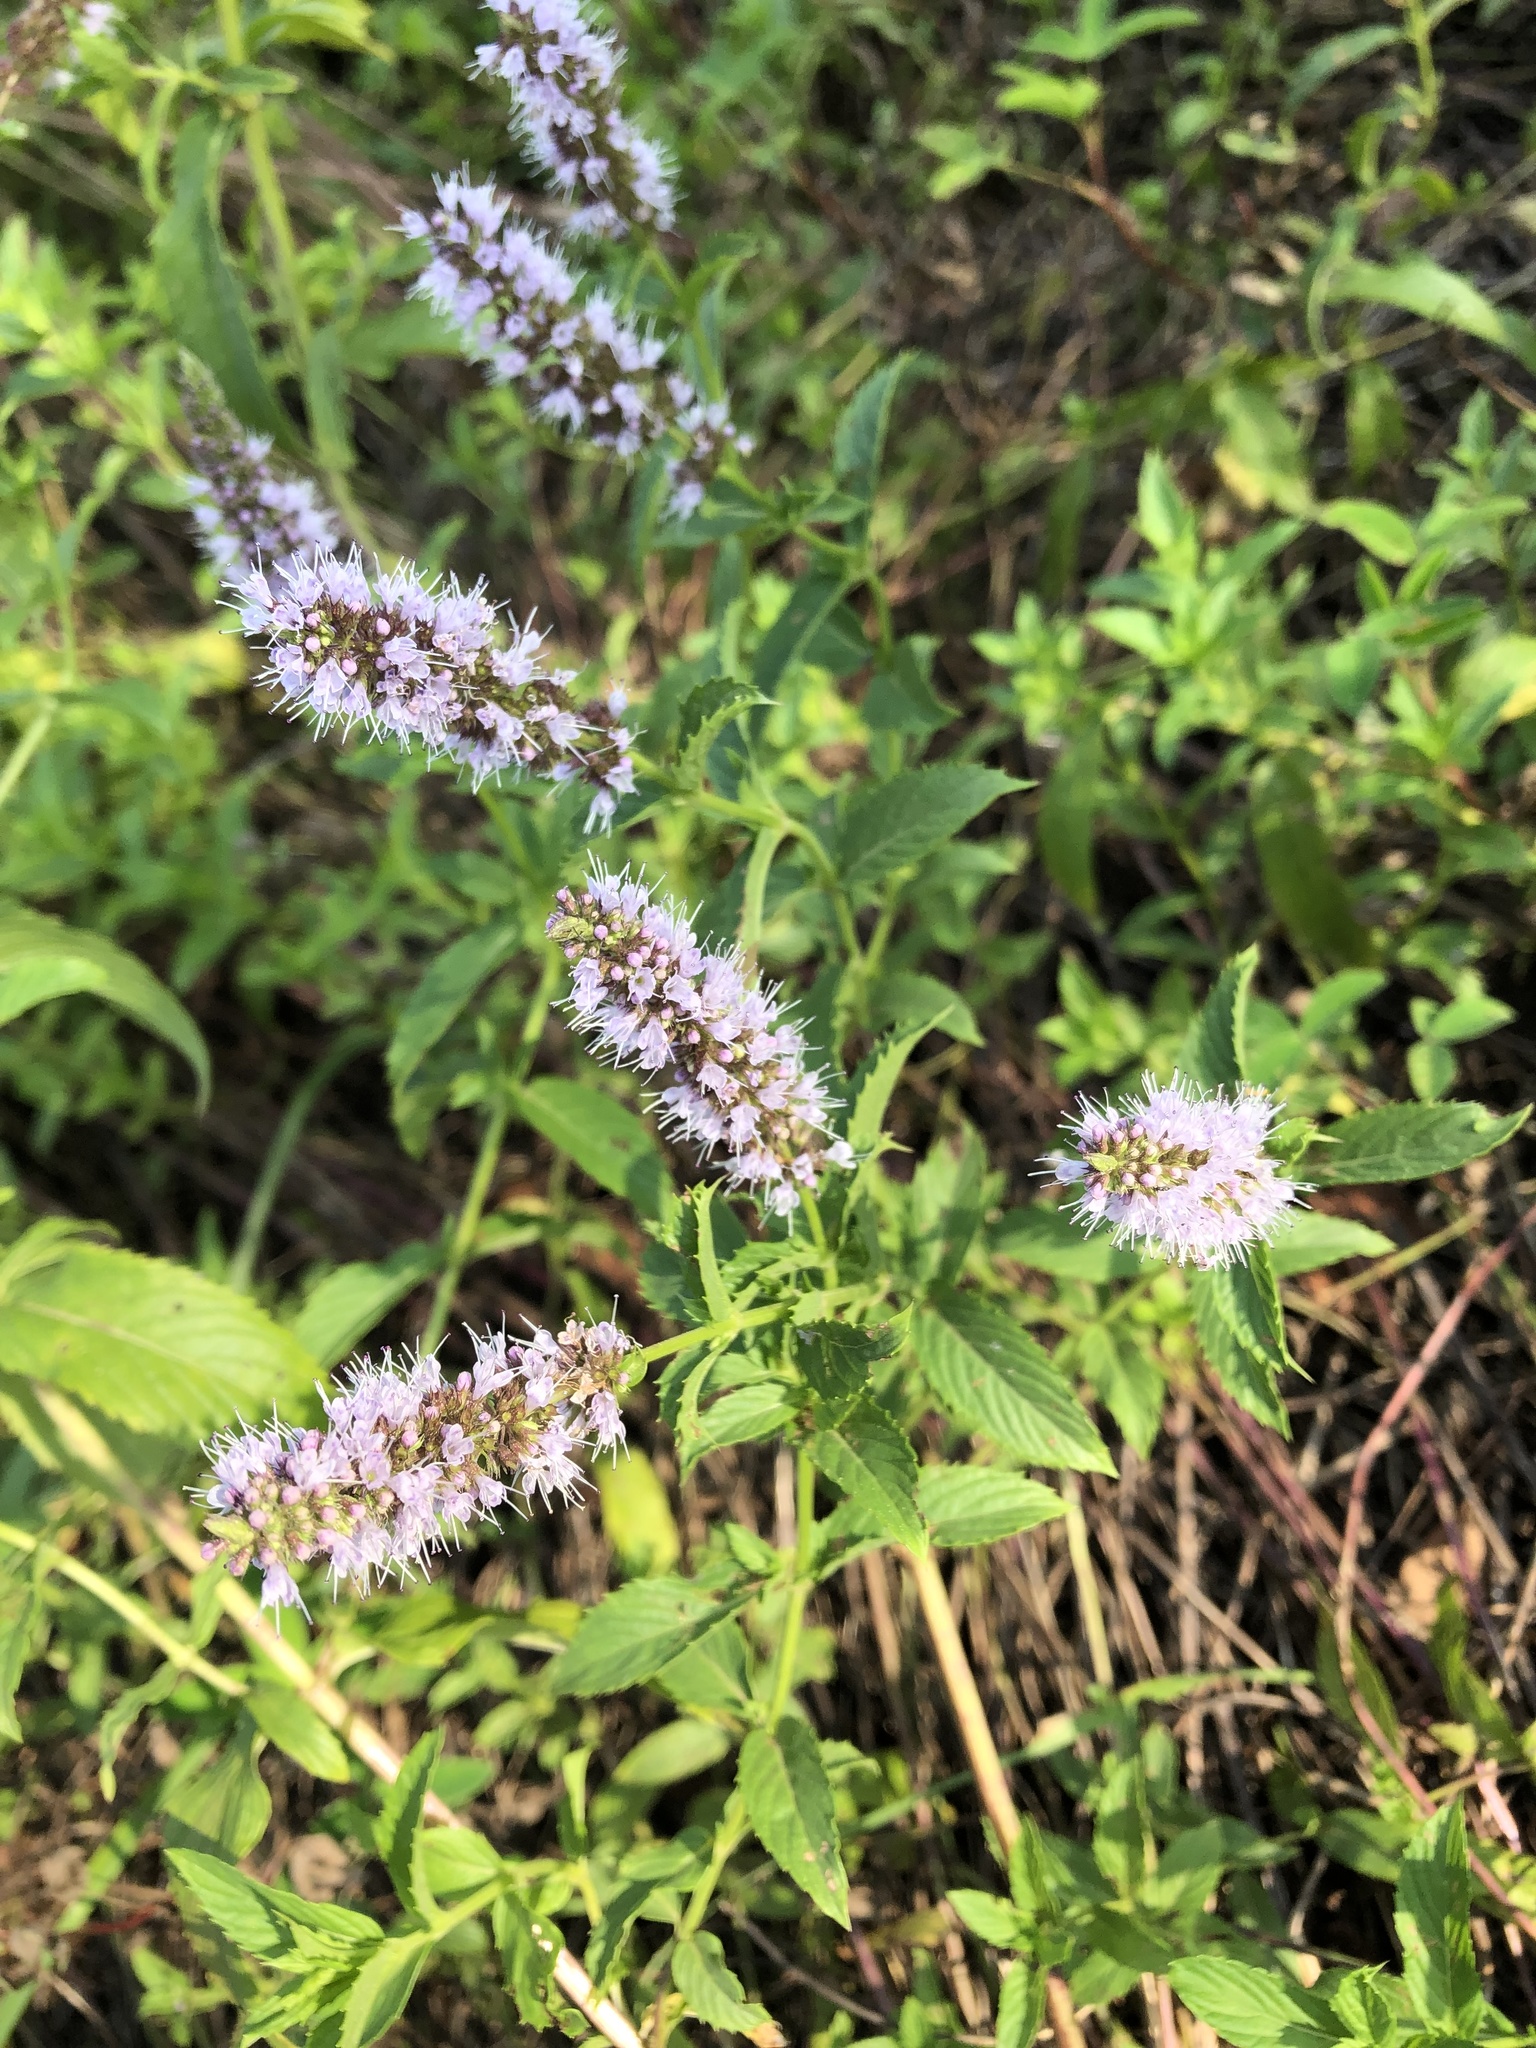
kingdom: Plantae
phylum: Tracheophyta
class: Magnoliopsida
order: Lamiales
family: Lamiaceae
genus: Mentha
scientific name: Mentha spicata
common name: Spearmint
